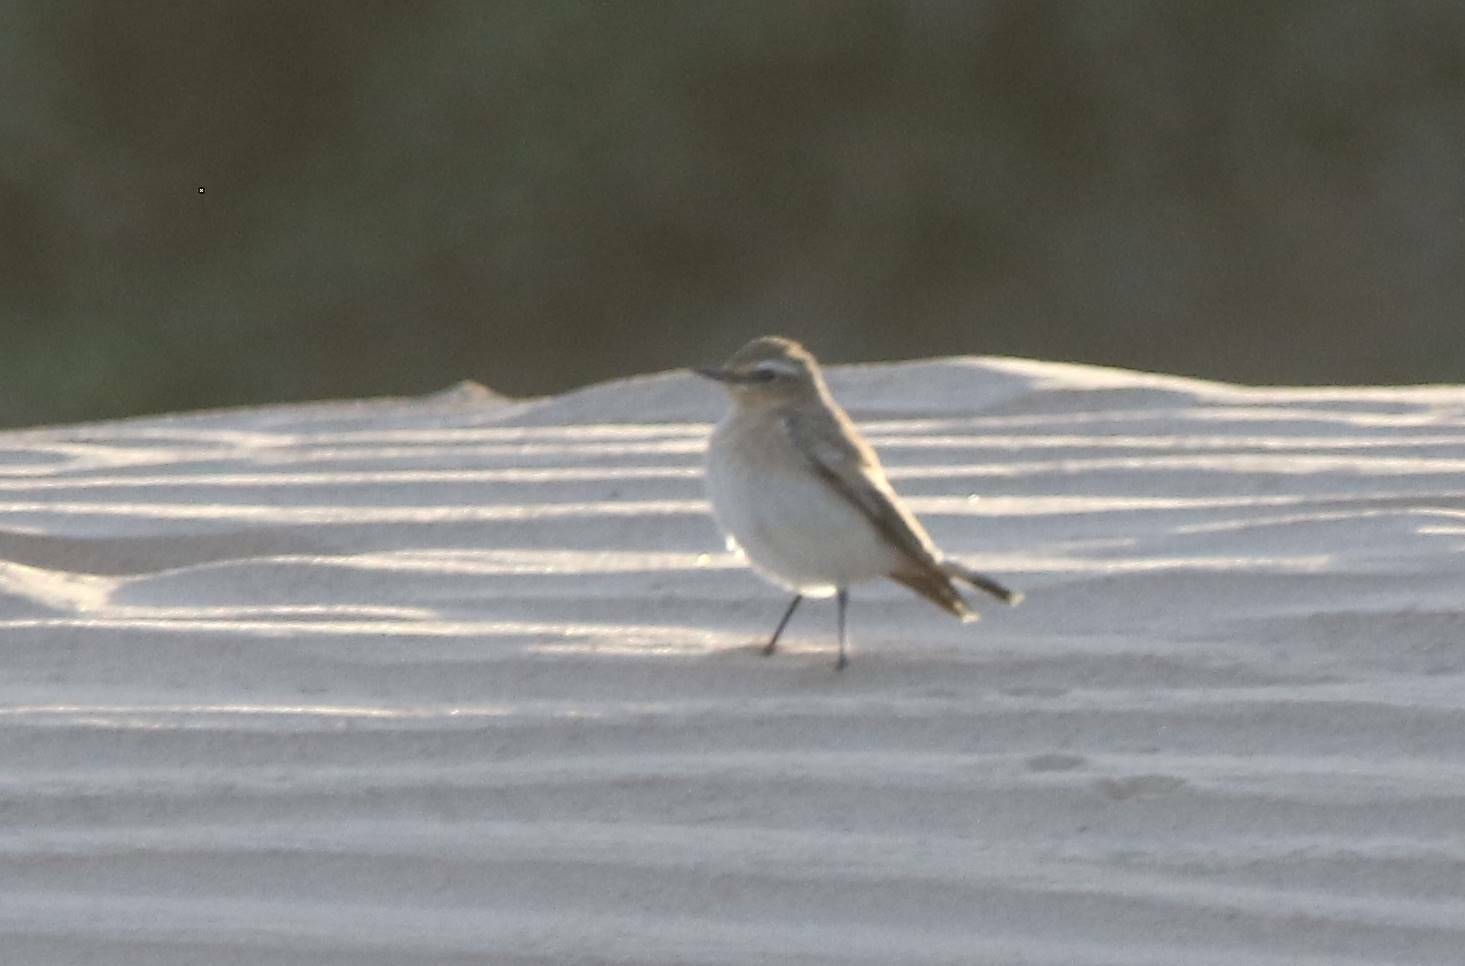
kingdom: Animalia
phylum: Chordata
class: Aves
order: Passeriformes
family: Muscicapidae
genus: Oenanthe
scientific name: Oenanthe isabellina
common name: Isabelline wheatear
